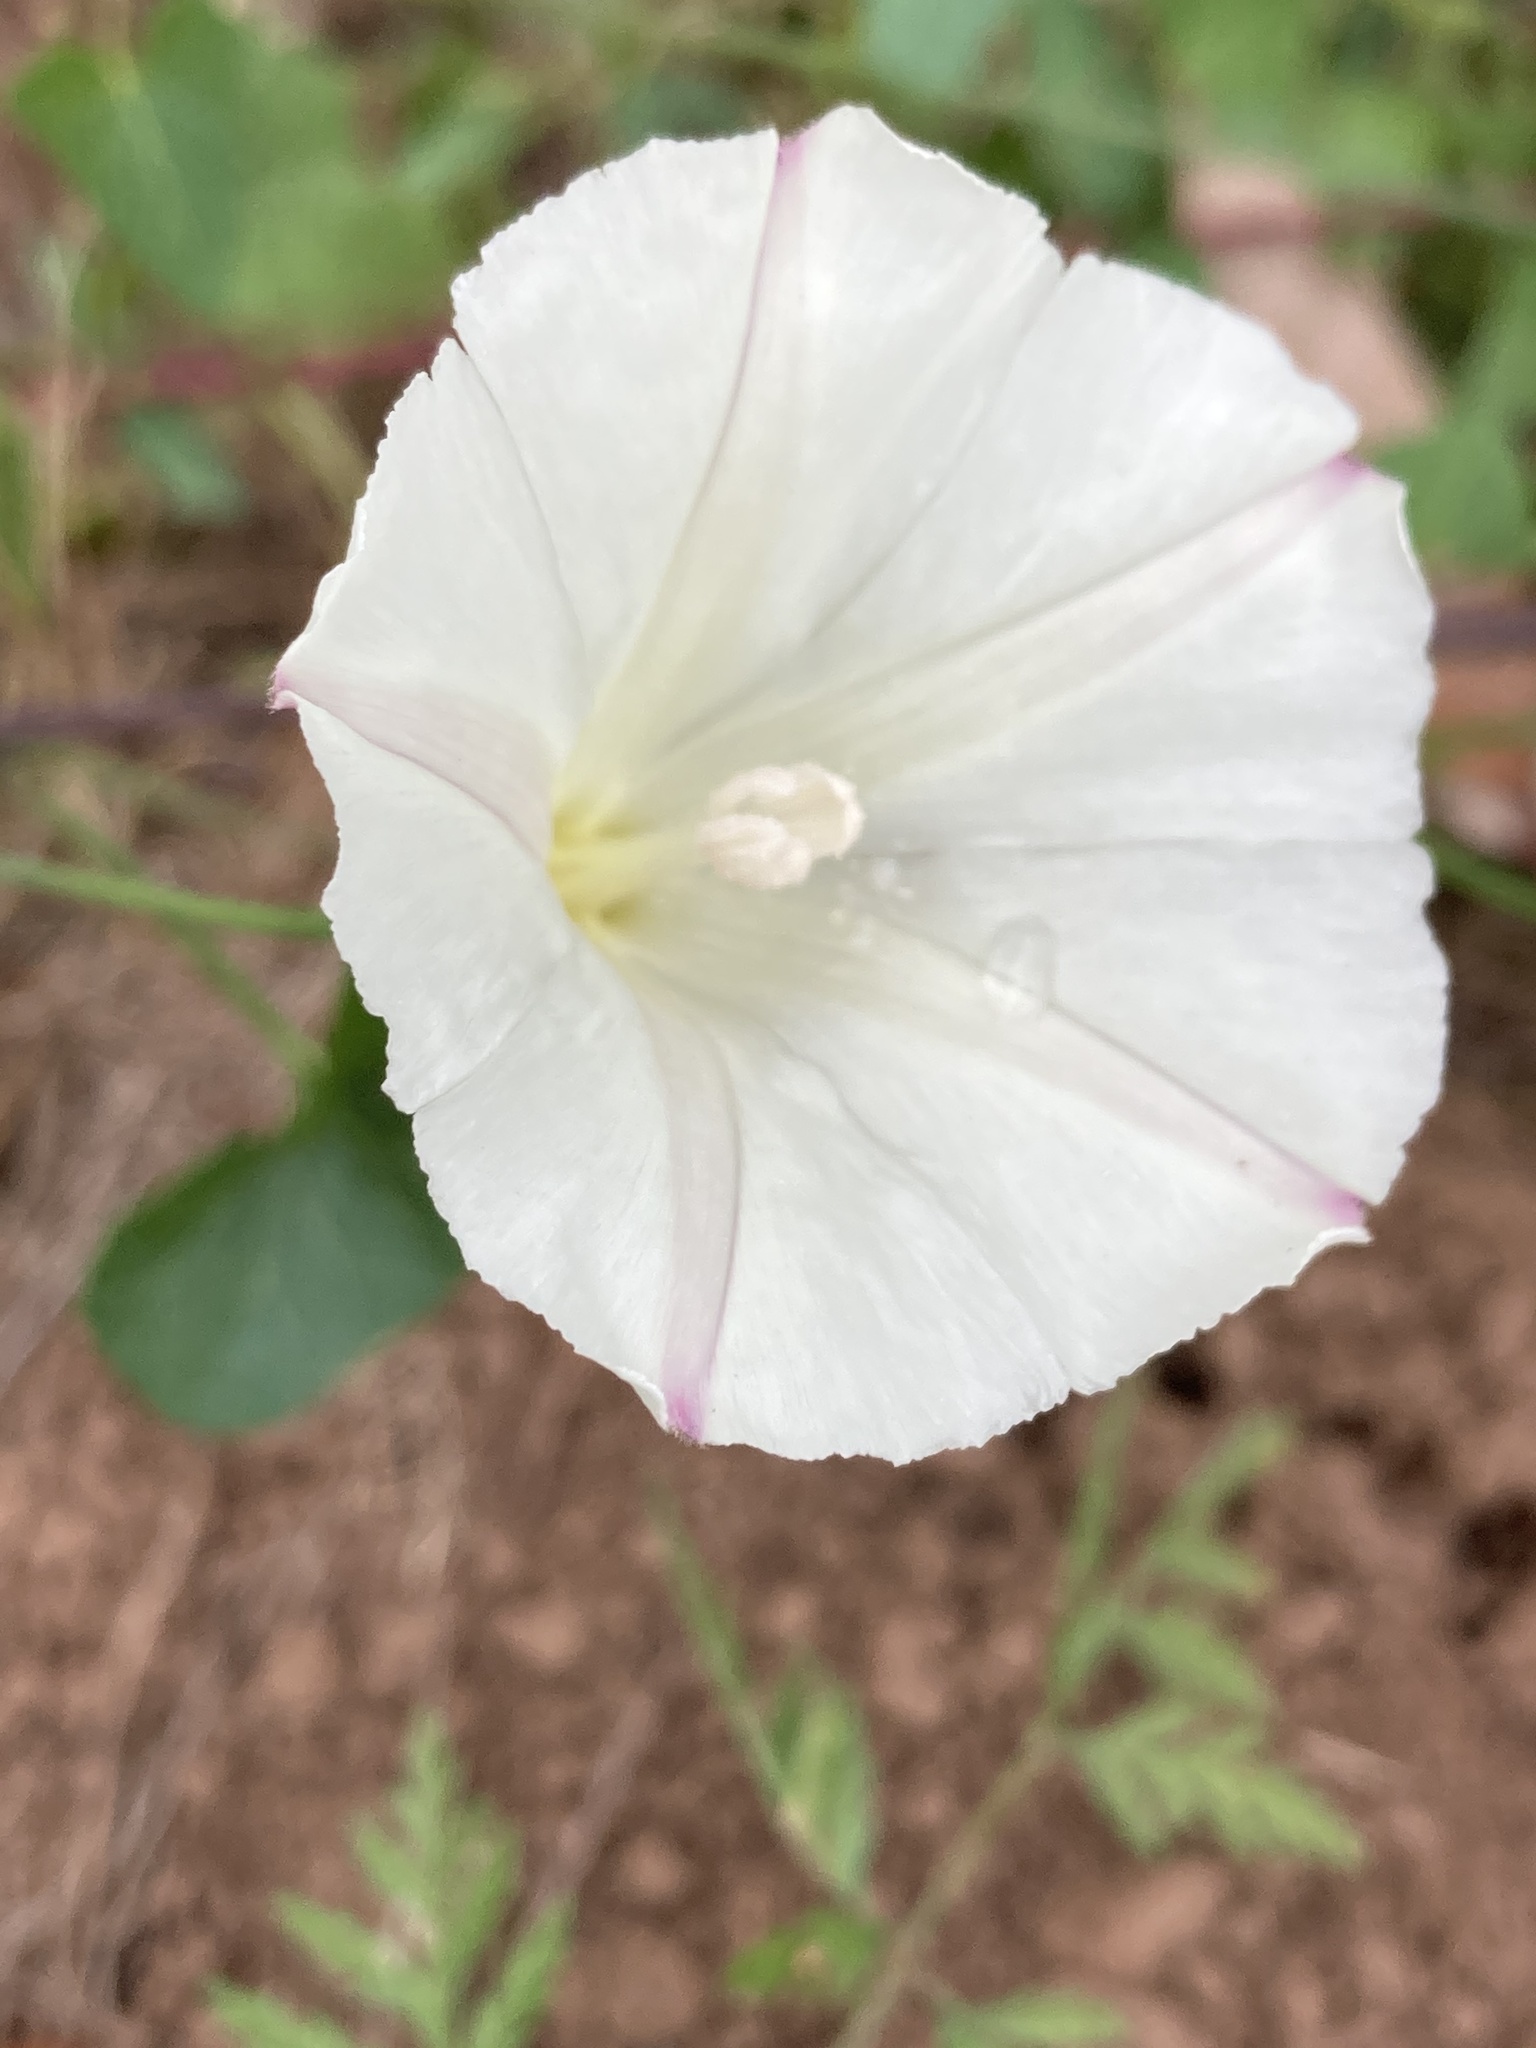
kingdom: Plantae
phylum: Tracheophyta
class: Magnoliopsida
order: Solanales
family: Convolvulaceae
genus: Calystegia
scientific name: Calystegia purpurata
